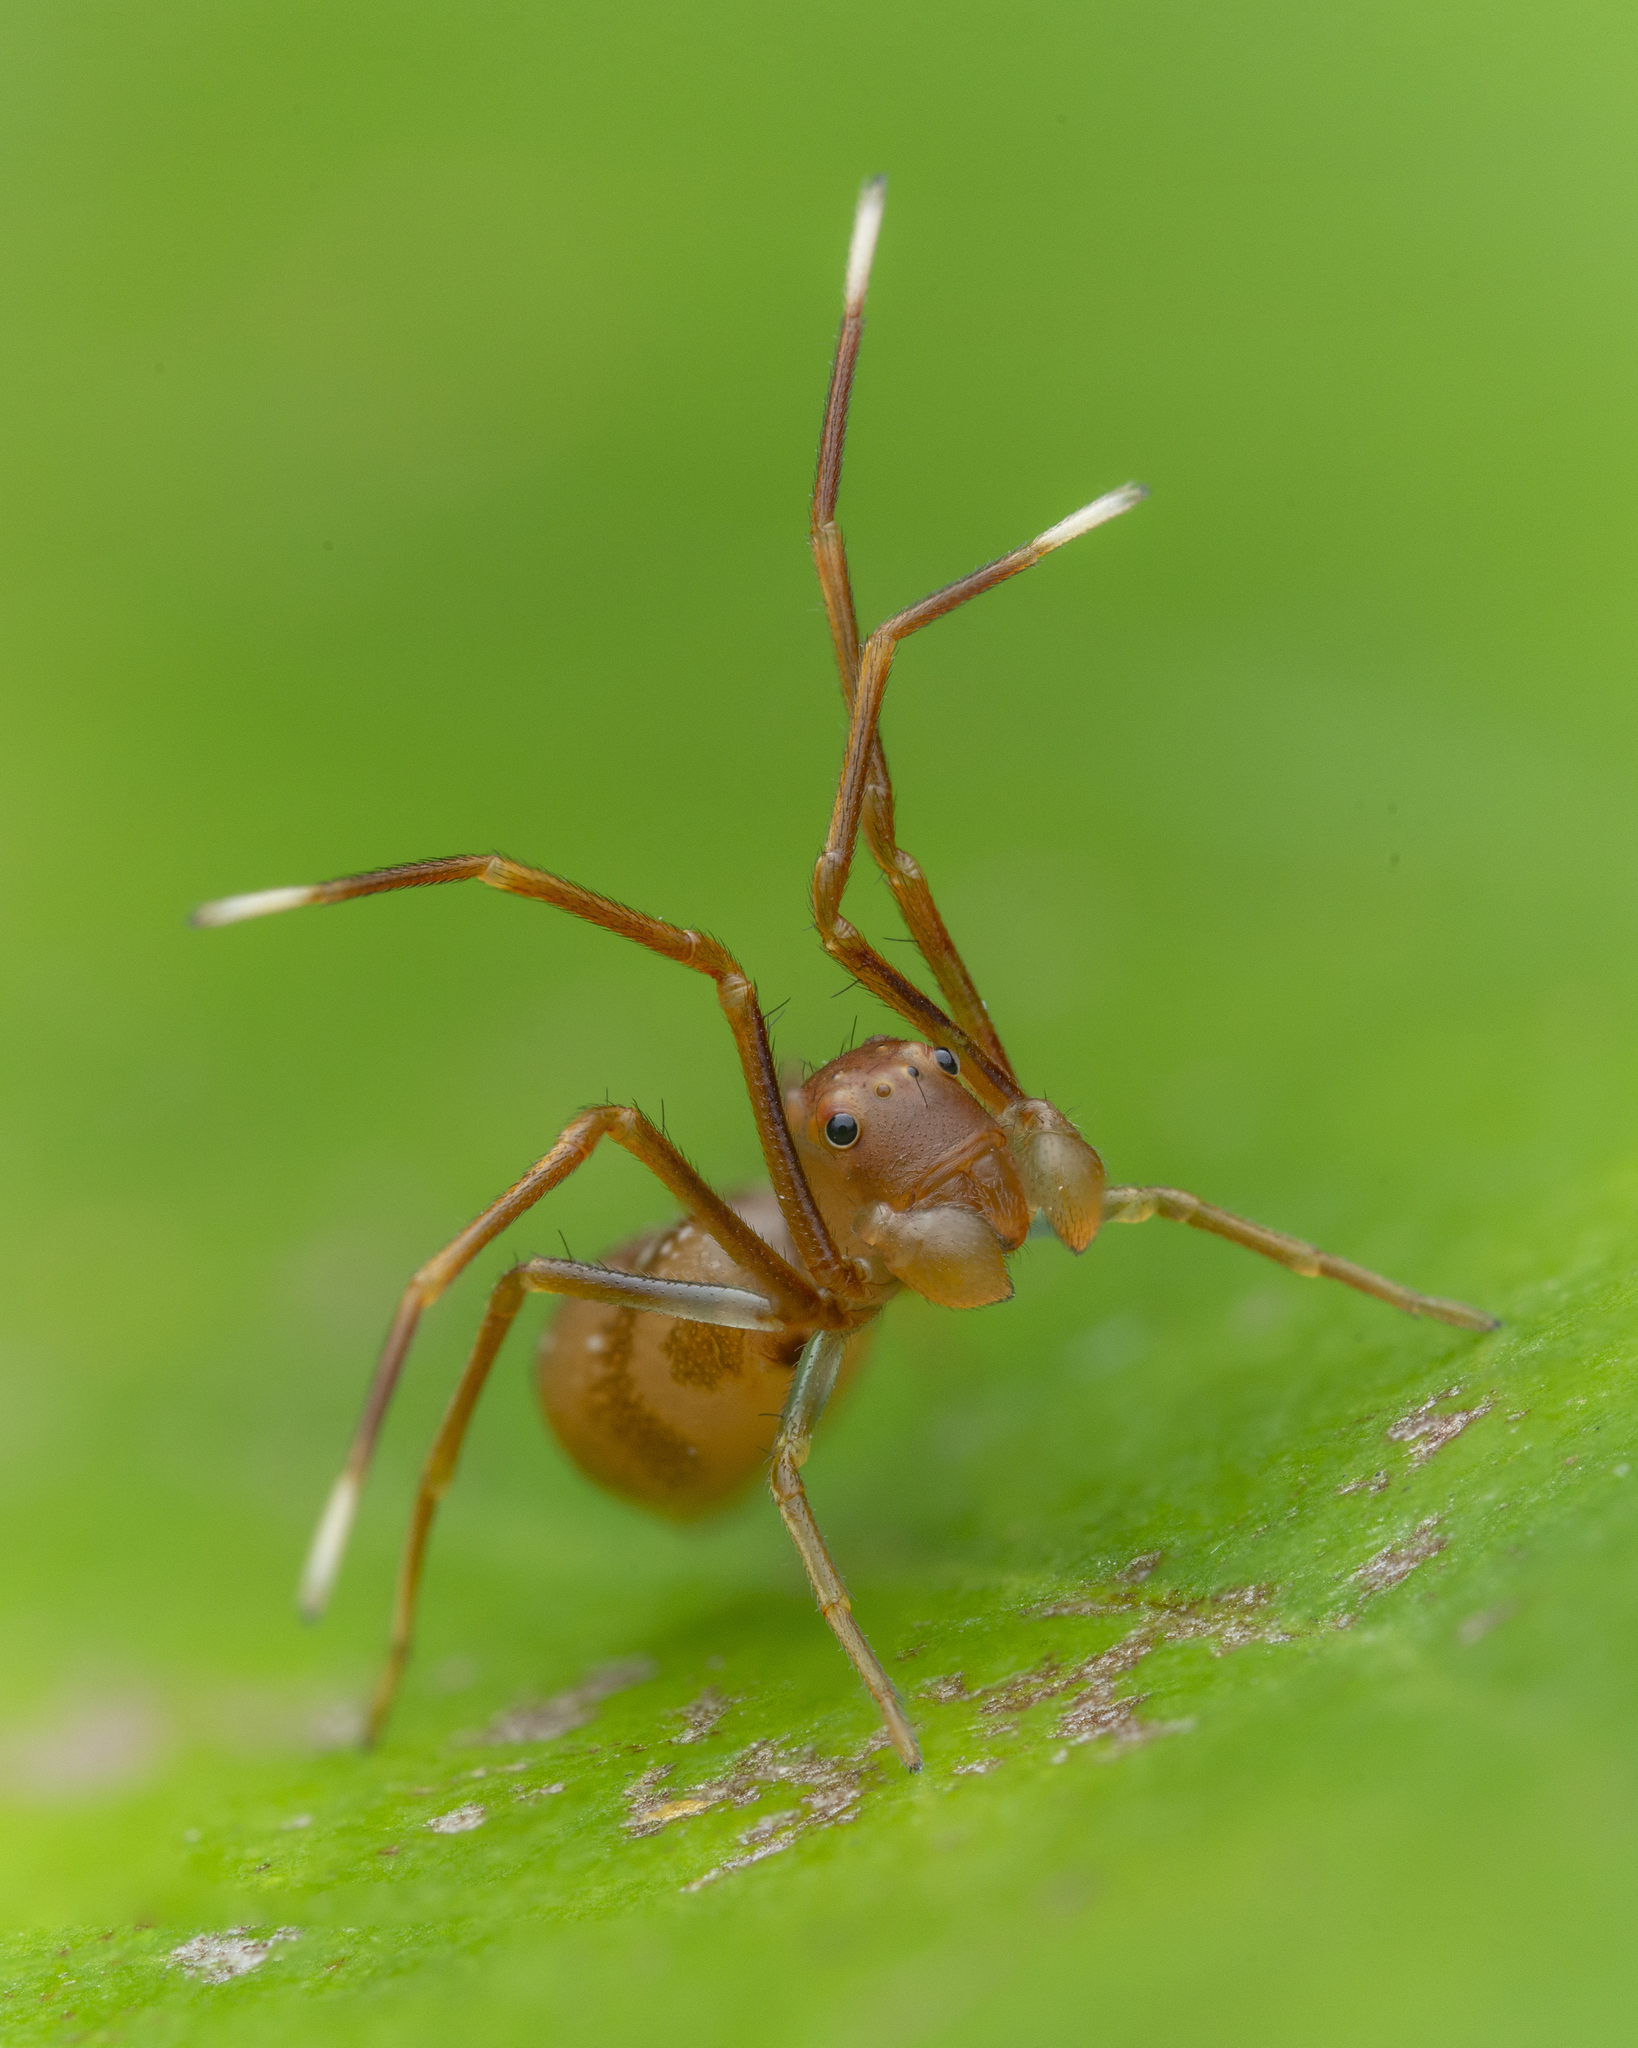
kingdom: Animalia
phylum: Arthropoda
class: Arachnida
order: Araneae
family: Thomisidae
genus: Amyciaea
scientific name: Amyciaea forticeps
